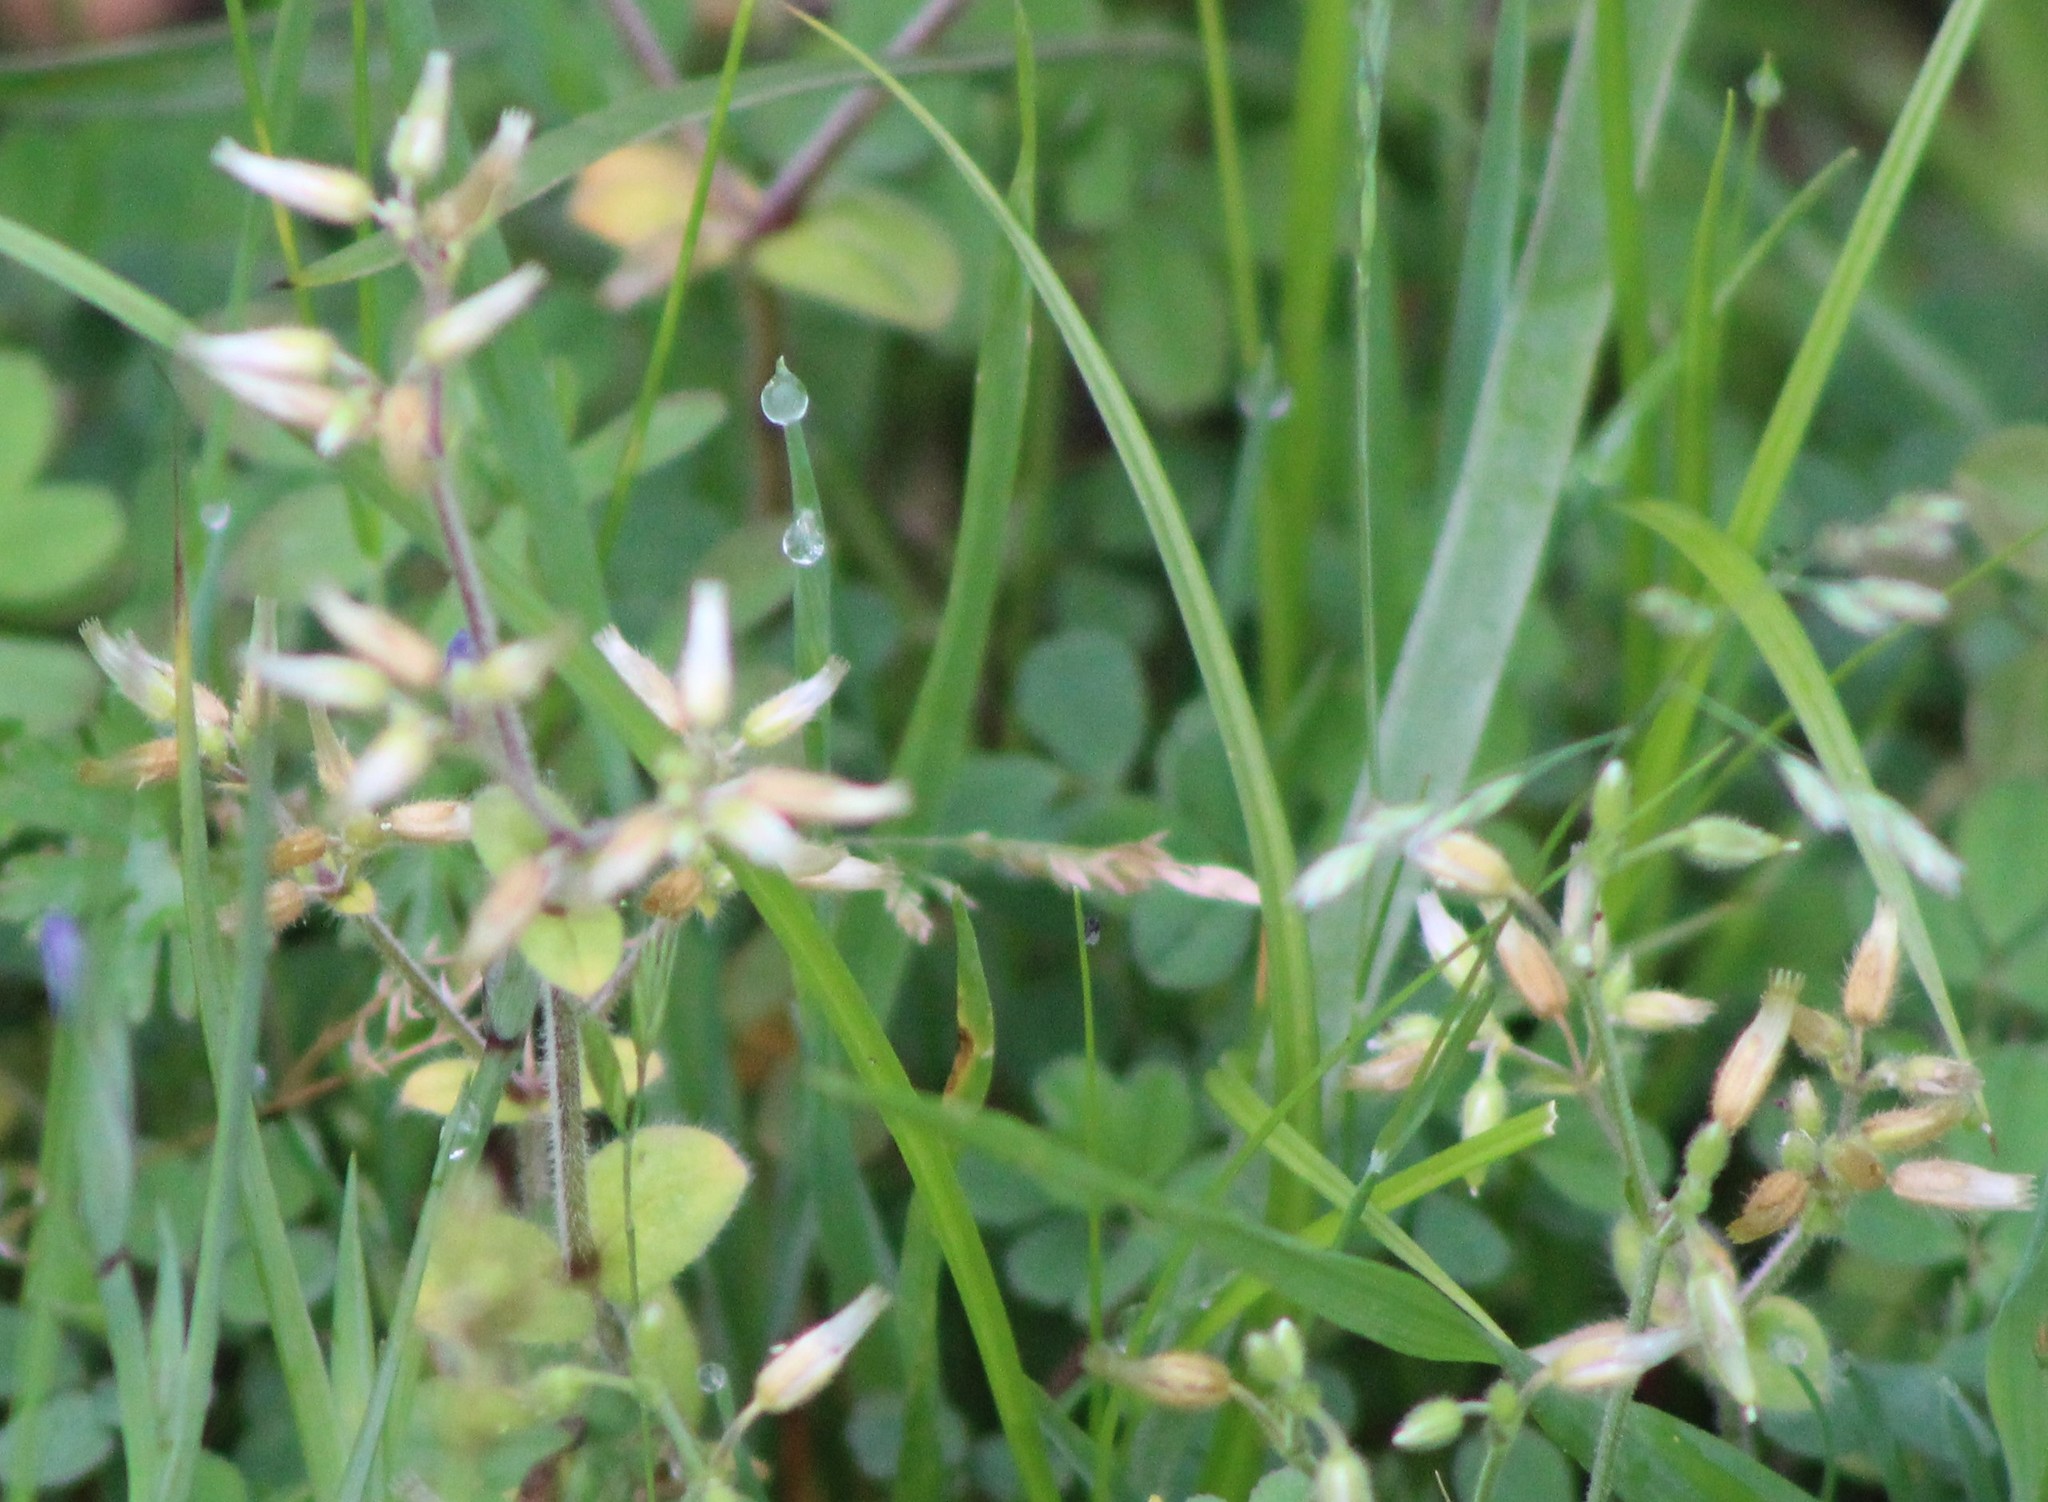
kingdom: Plantae
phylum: Tracheophyta
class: Magnoliopsida
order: Caryophyllales
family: Caryophyllaceae
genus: Cerastium
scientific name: Cerastium glomeratum
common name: Sticky chickweed
